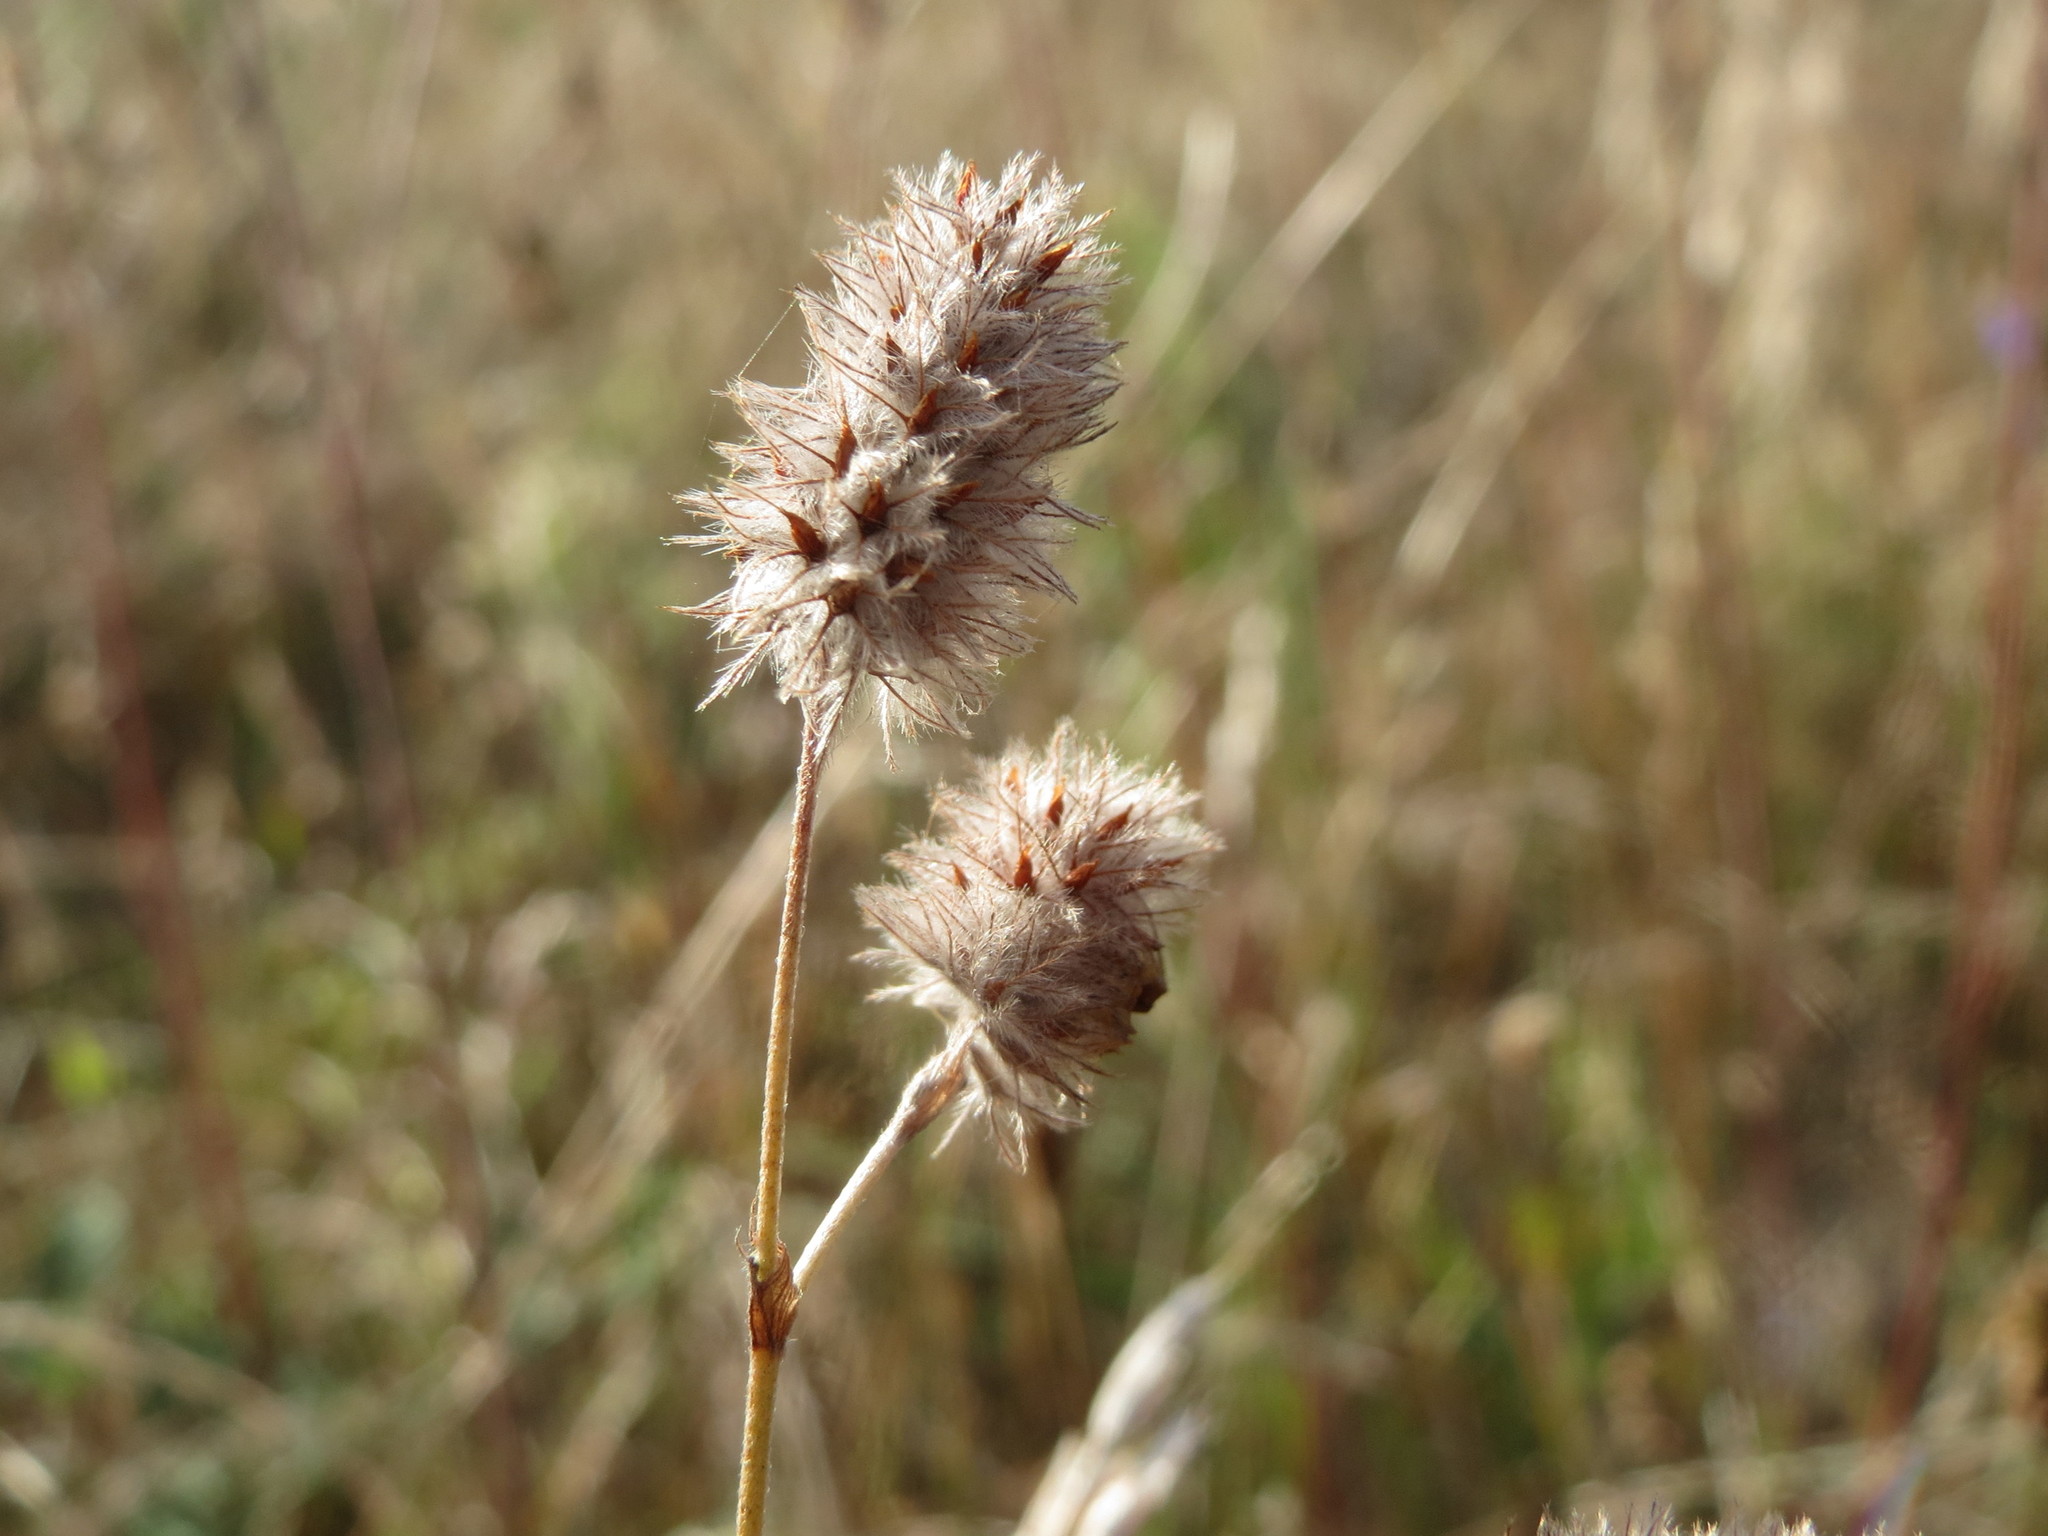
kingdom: Plantae
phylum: Tracheophyta
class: Magnoliopsida
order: Fabales
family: Fabaceae
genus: Trifolium
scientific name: Trifolium arvense
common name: Hare's-foot clover
